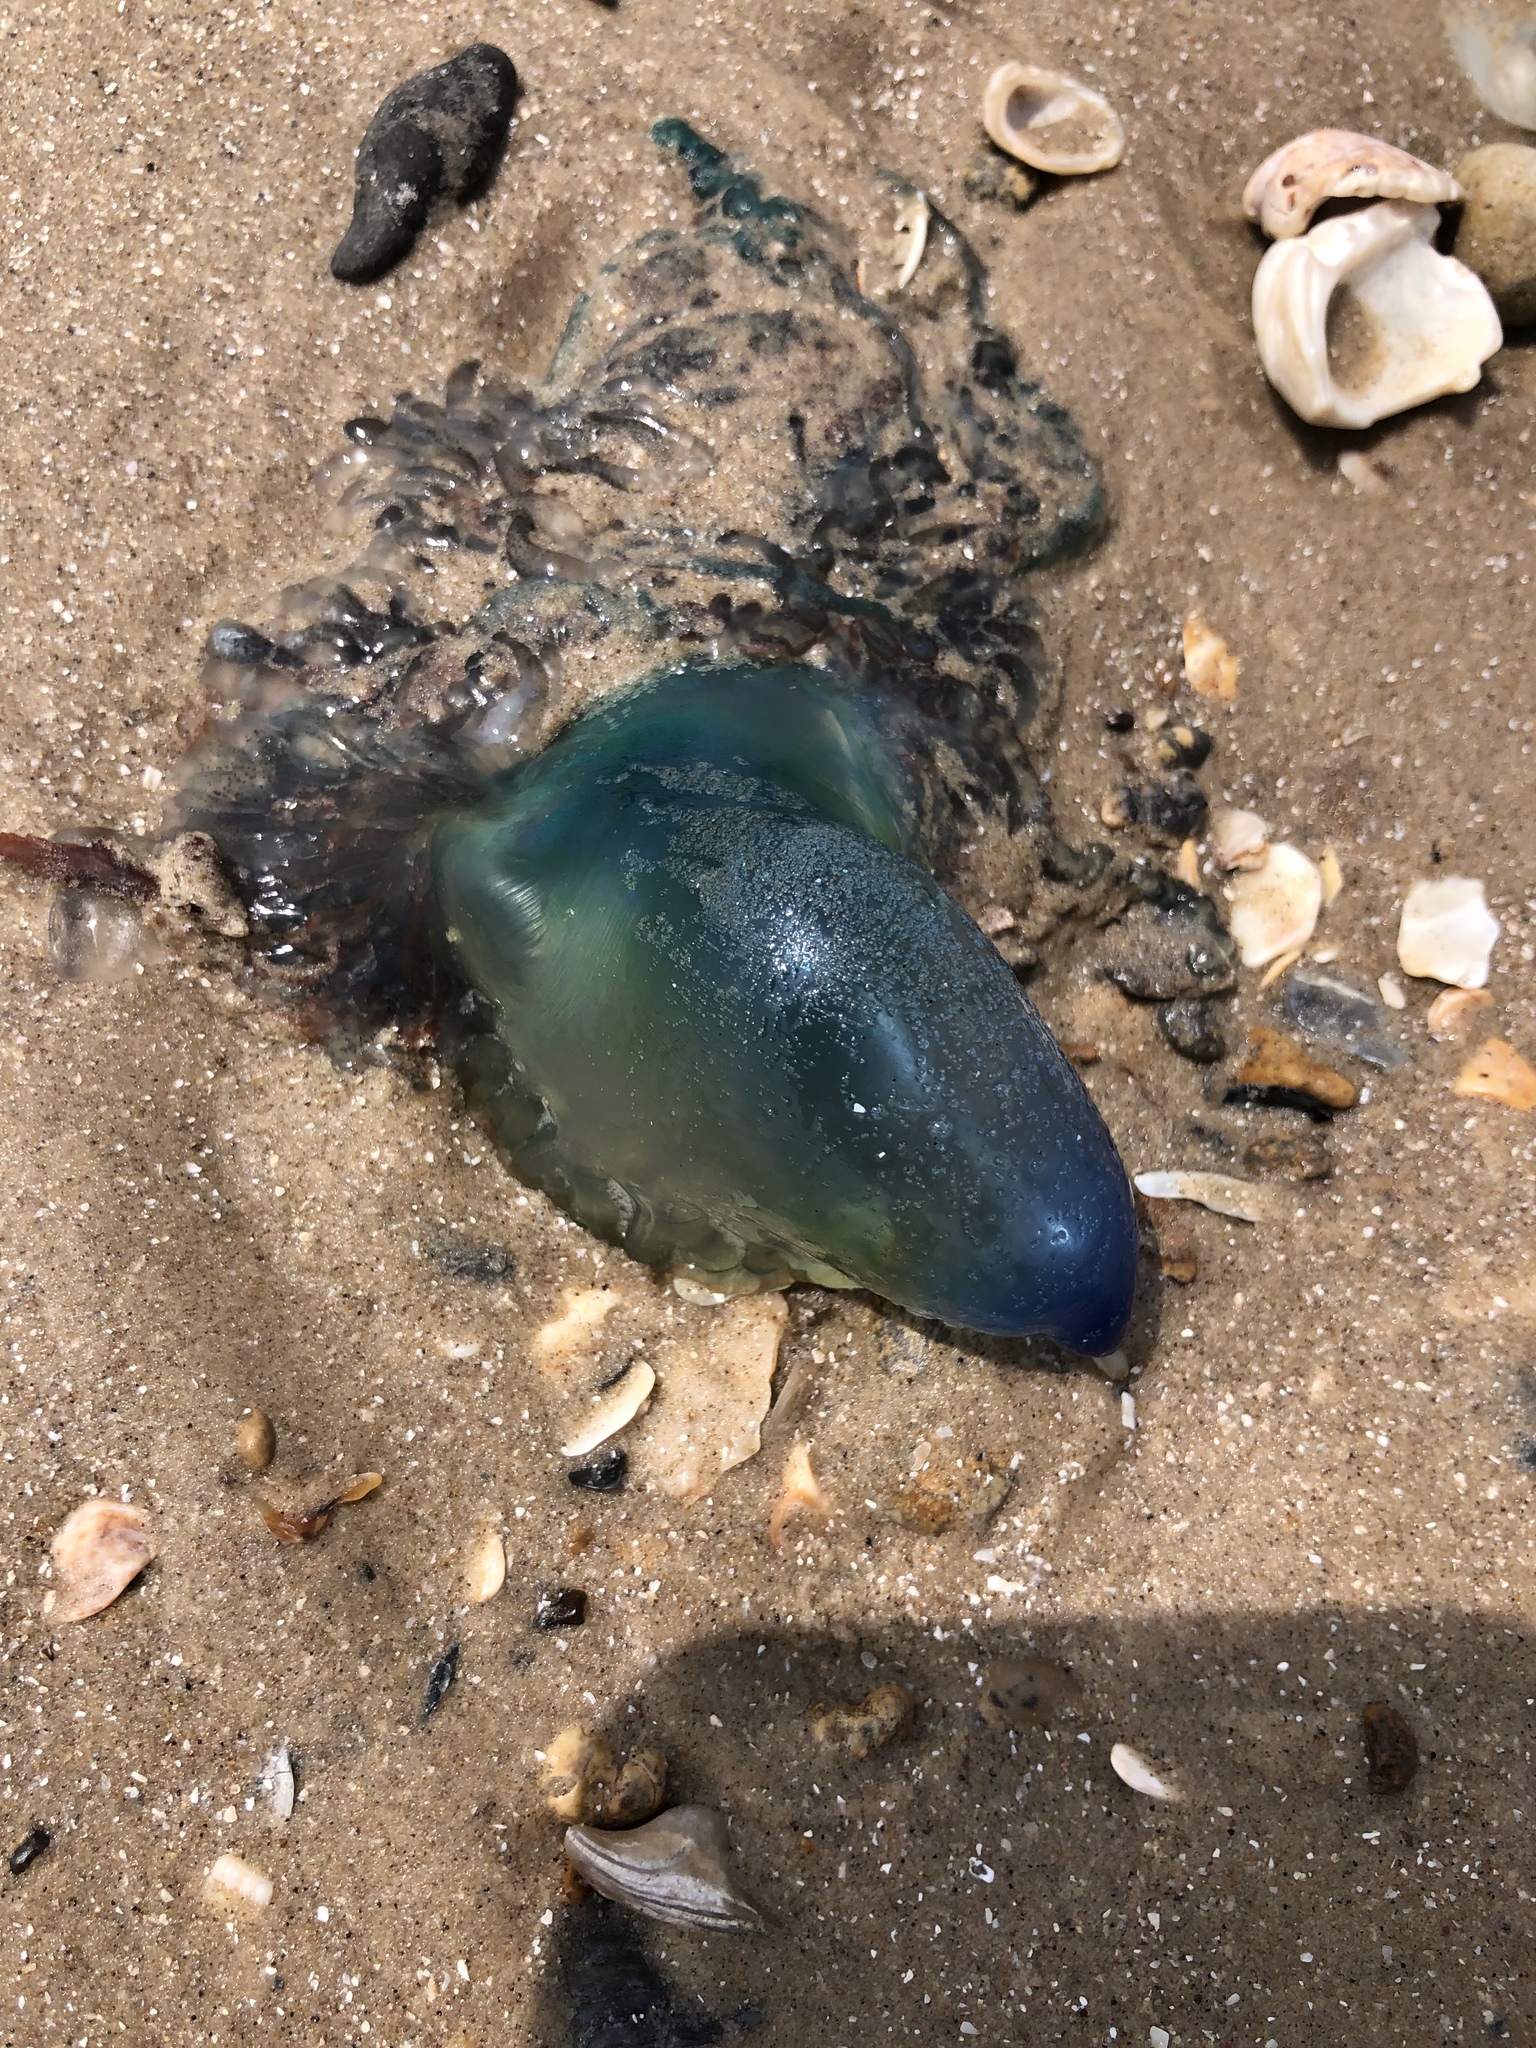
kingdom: Animalia
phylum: Cnidaria
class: Hydrozoa
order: Siphonophorae
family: Physaliidae
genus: Physalia
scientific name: Physalia physalis
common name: Portuguese man-of-war
